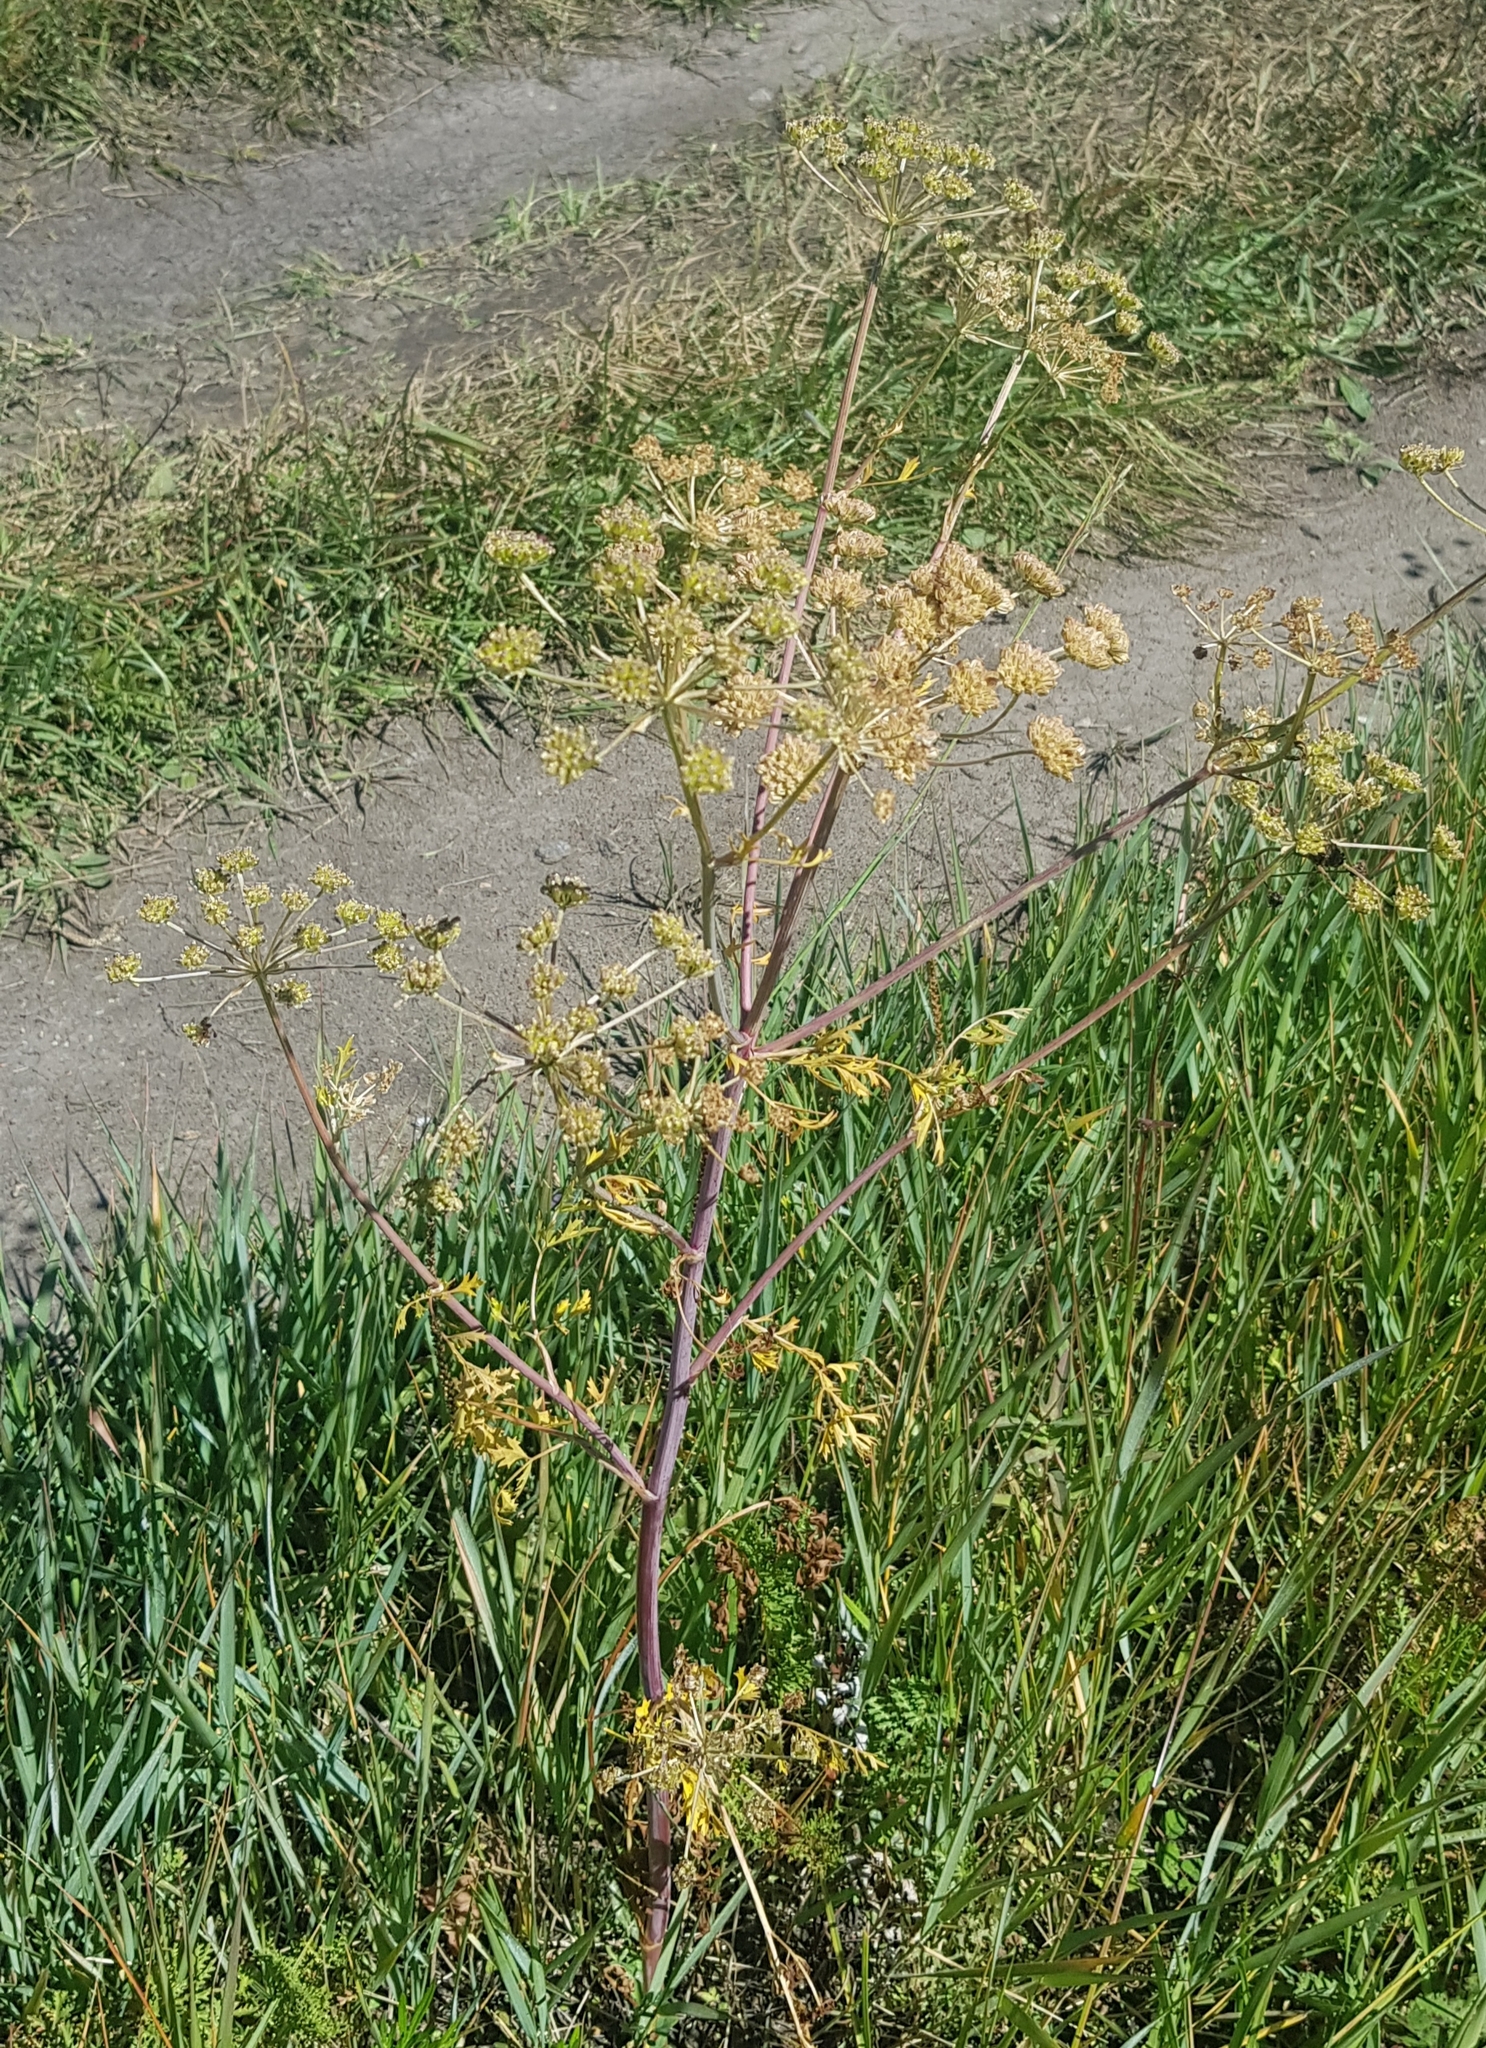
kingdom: Plantae
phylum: Tracheophyta
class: Magnoliopsida
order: Apiales
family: Apiaceae
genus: Cicuta
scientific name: Cicuta virosa
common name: Cowbane
